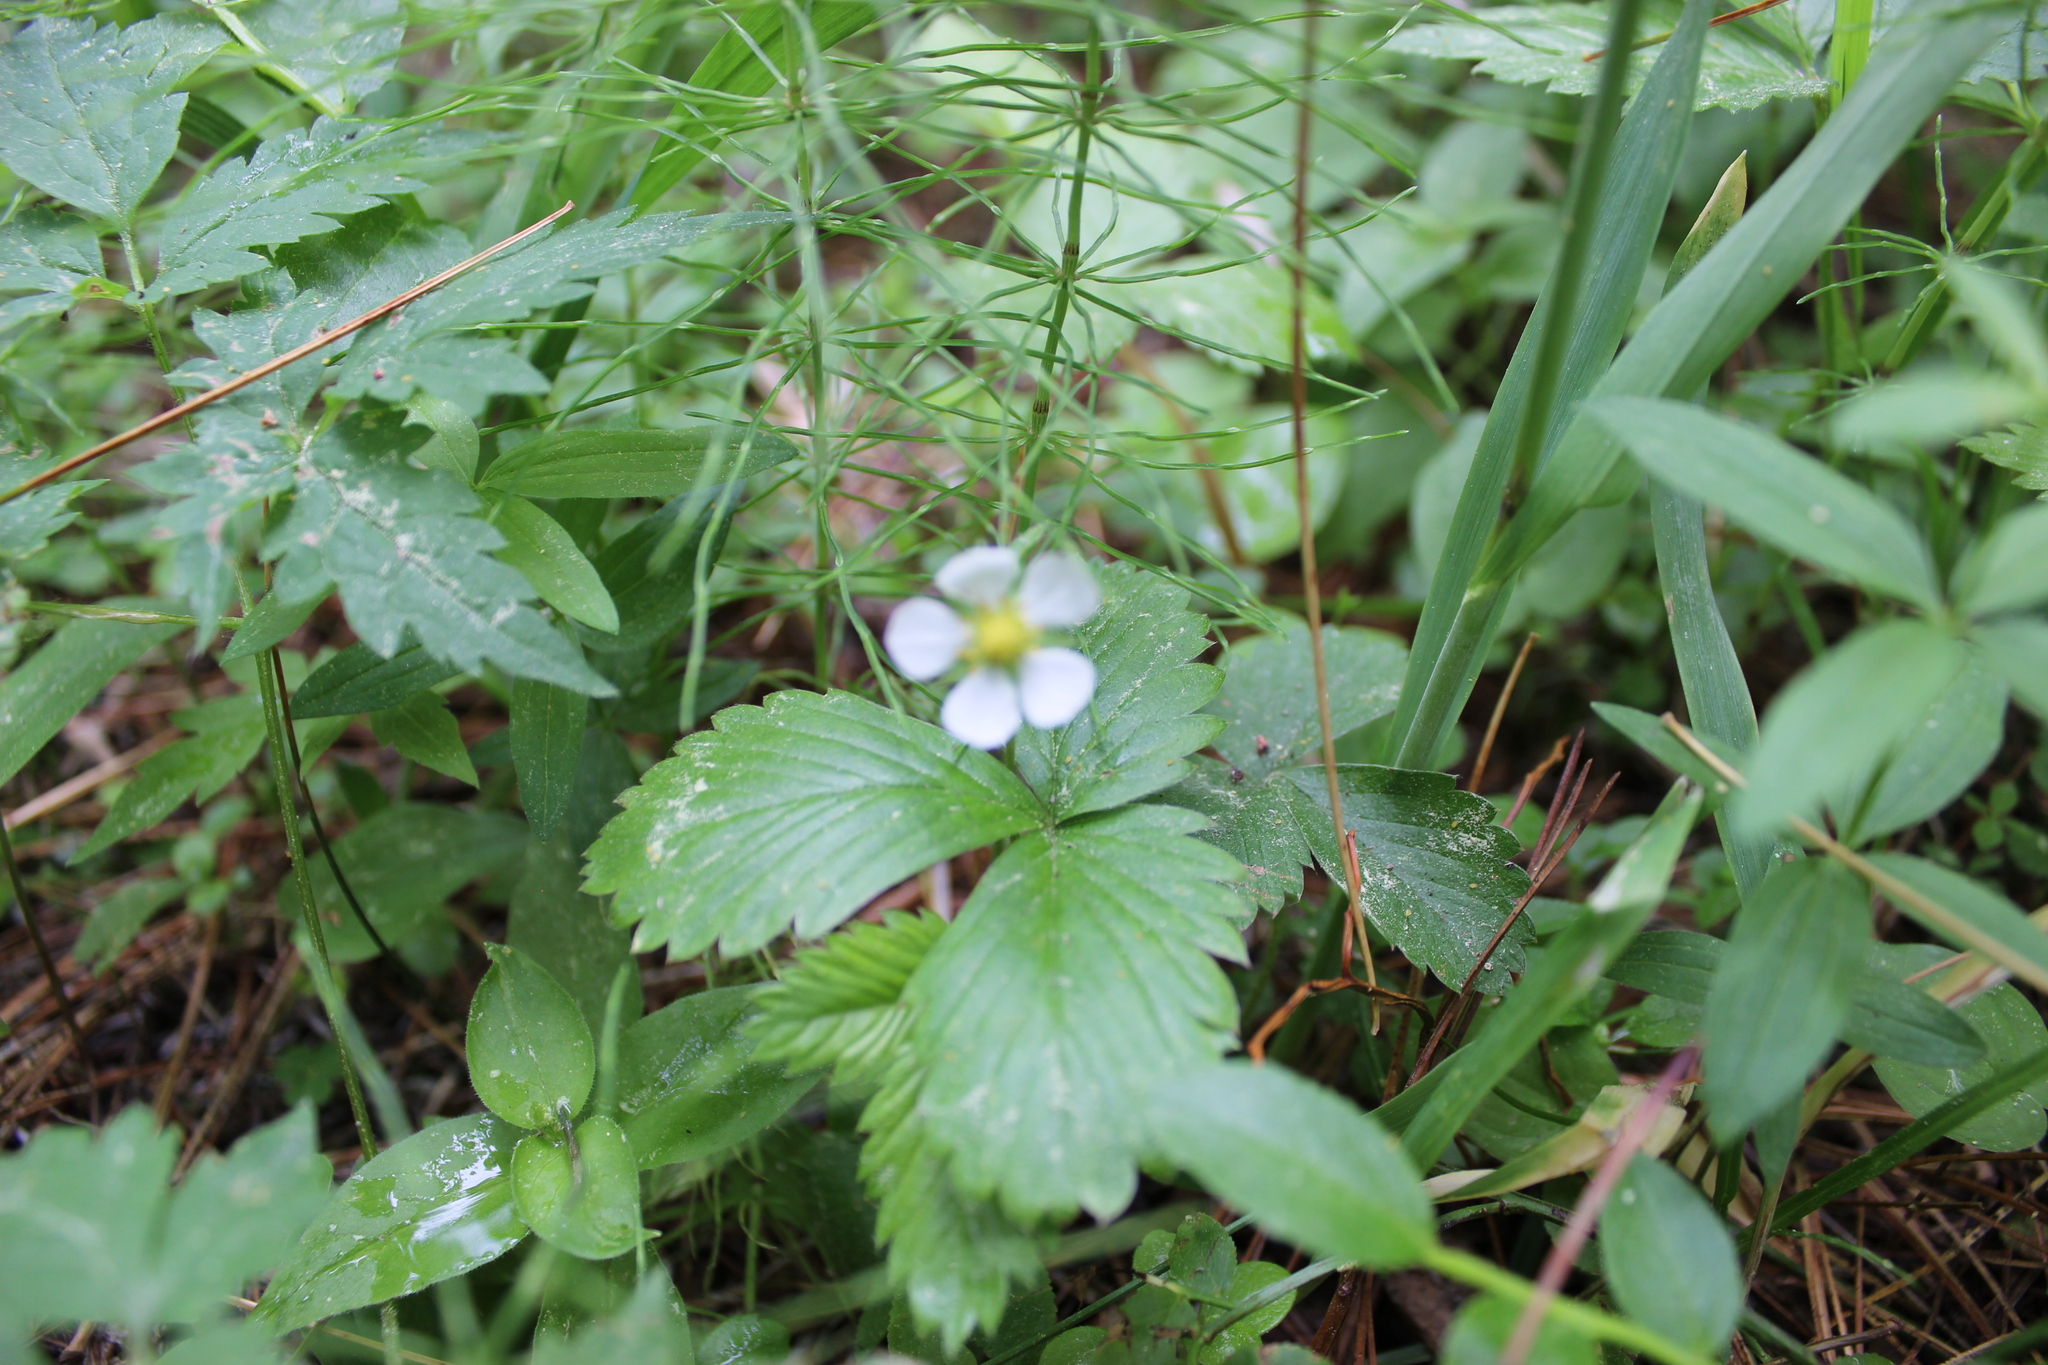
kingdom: Plantae
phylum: Tracheophyta
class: Magnoliopsida
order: Rosales
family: Rosaceae
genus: Fragaria
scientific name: Fragaria vesca
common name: Wild strawberry
